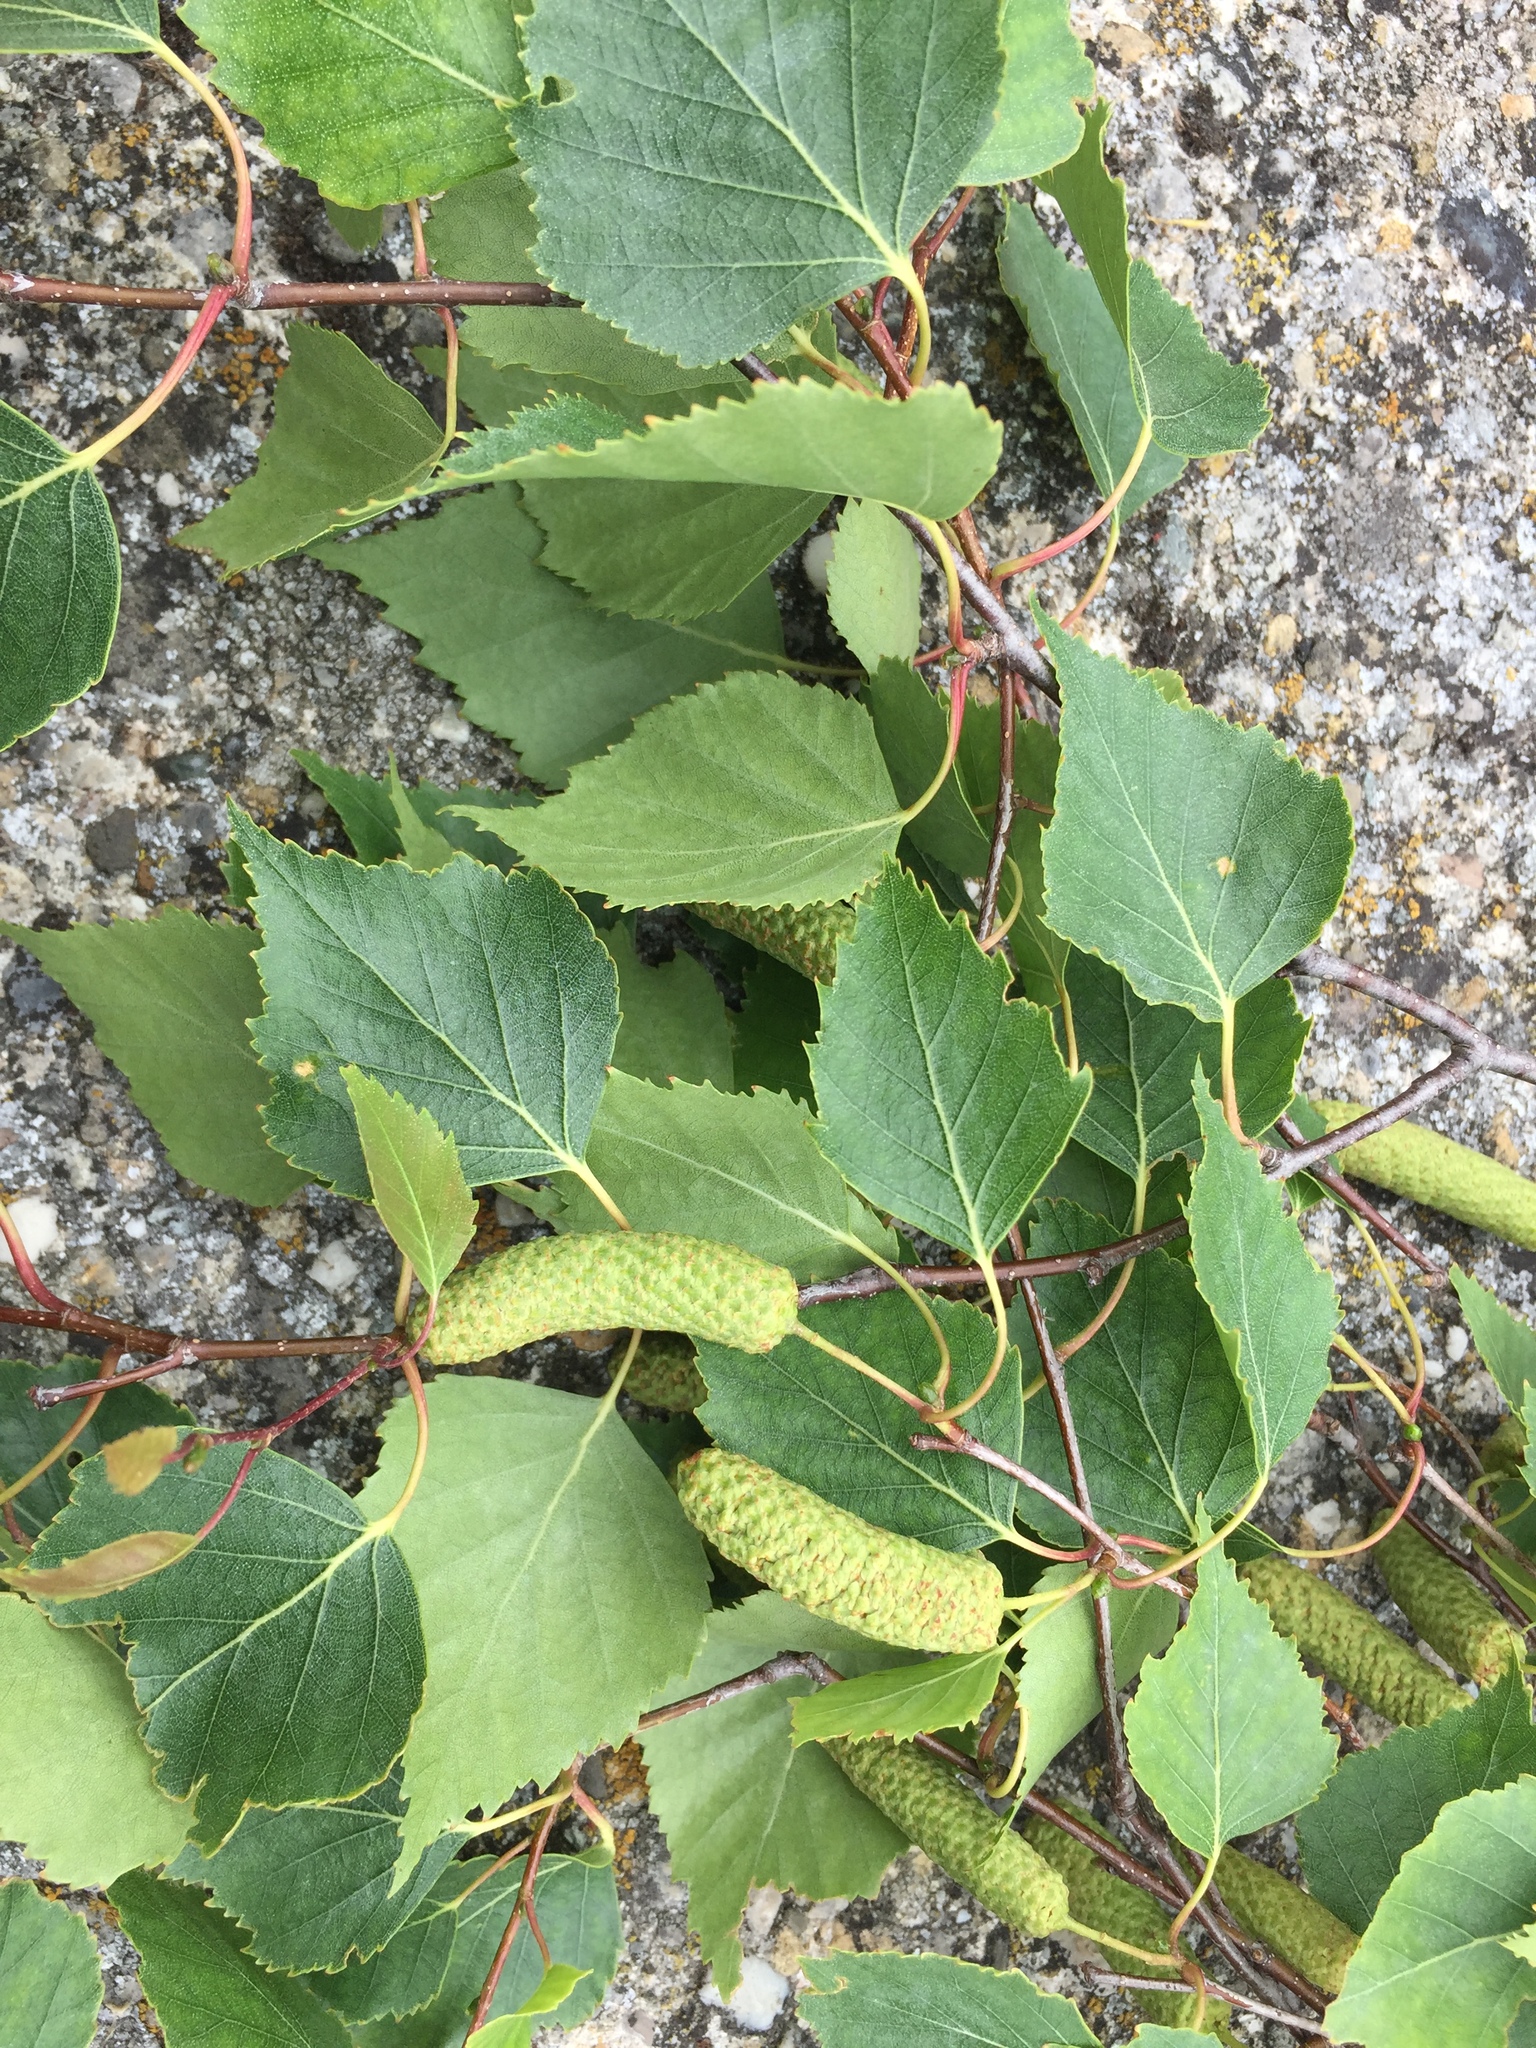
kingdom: Plantae
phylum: Tracheophyta
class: Magnoliopsida
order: Fagales
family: Betulaceae
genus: Betula
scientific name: Betula pendula
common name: Silver birch
